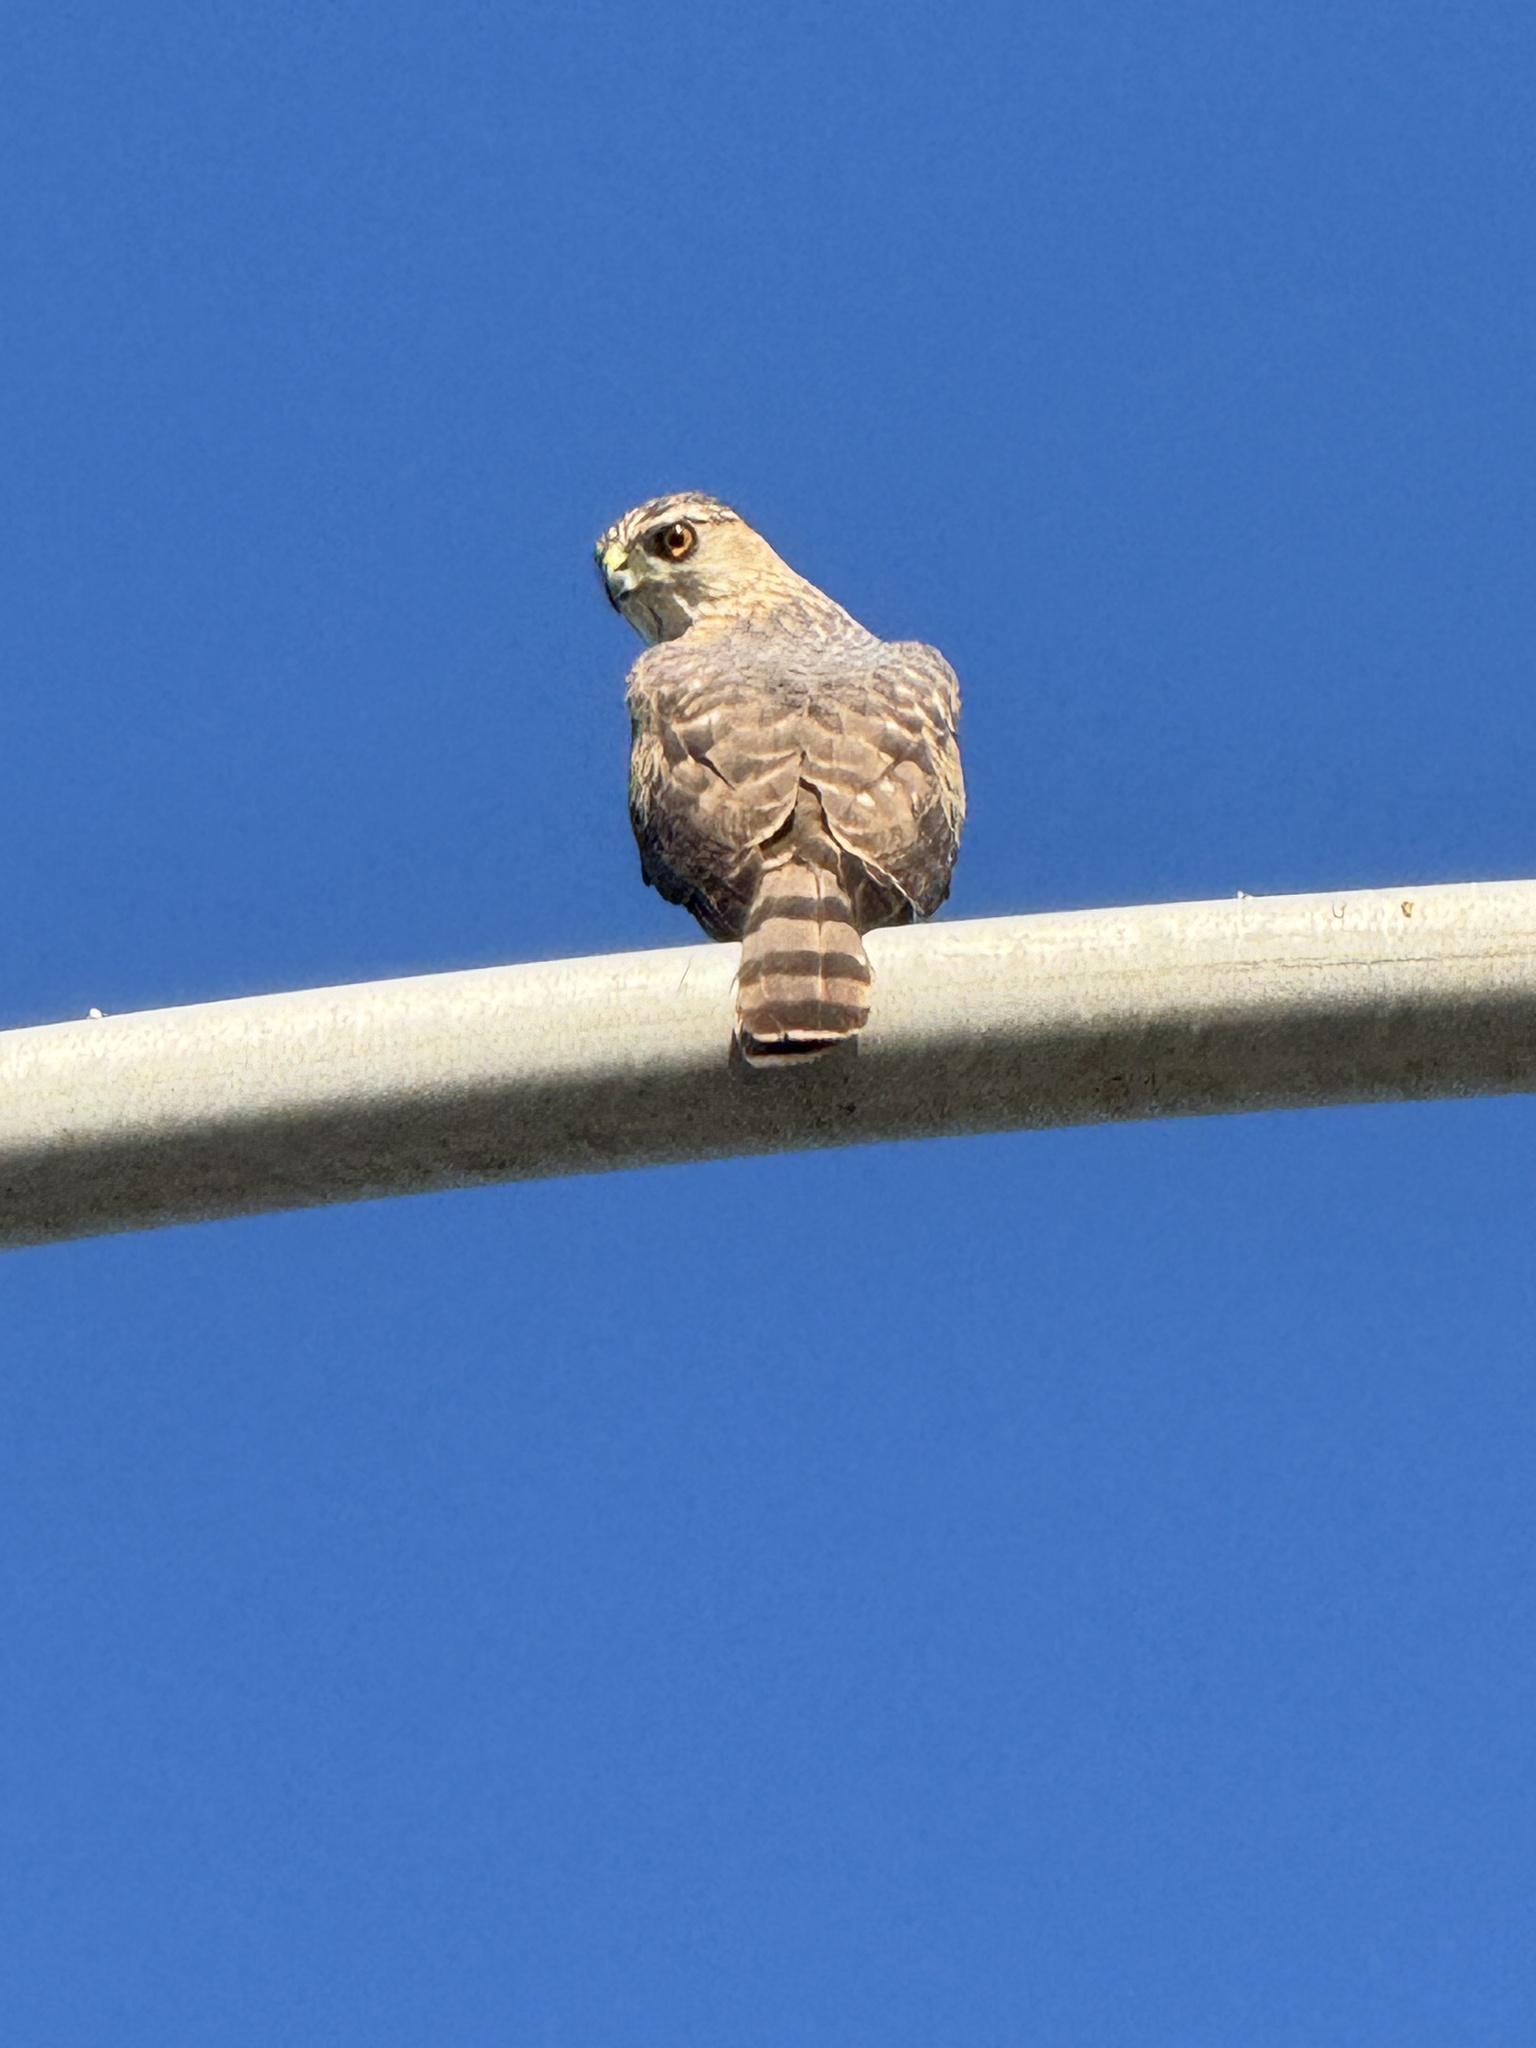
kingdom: Animalia
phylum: Chordata
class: Aves
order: Accipitriformes
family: Accipitridae
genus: Accipiter
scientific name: Accipiter cooperii
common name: Cooper's hawk
